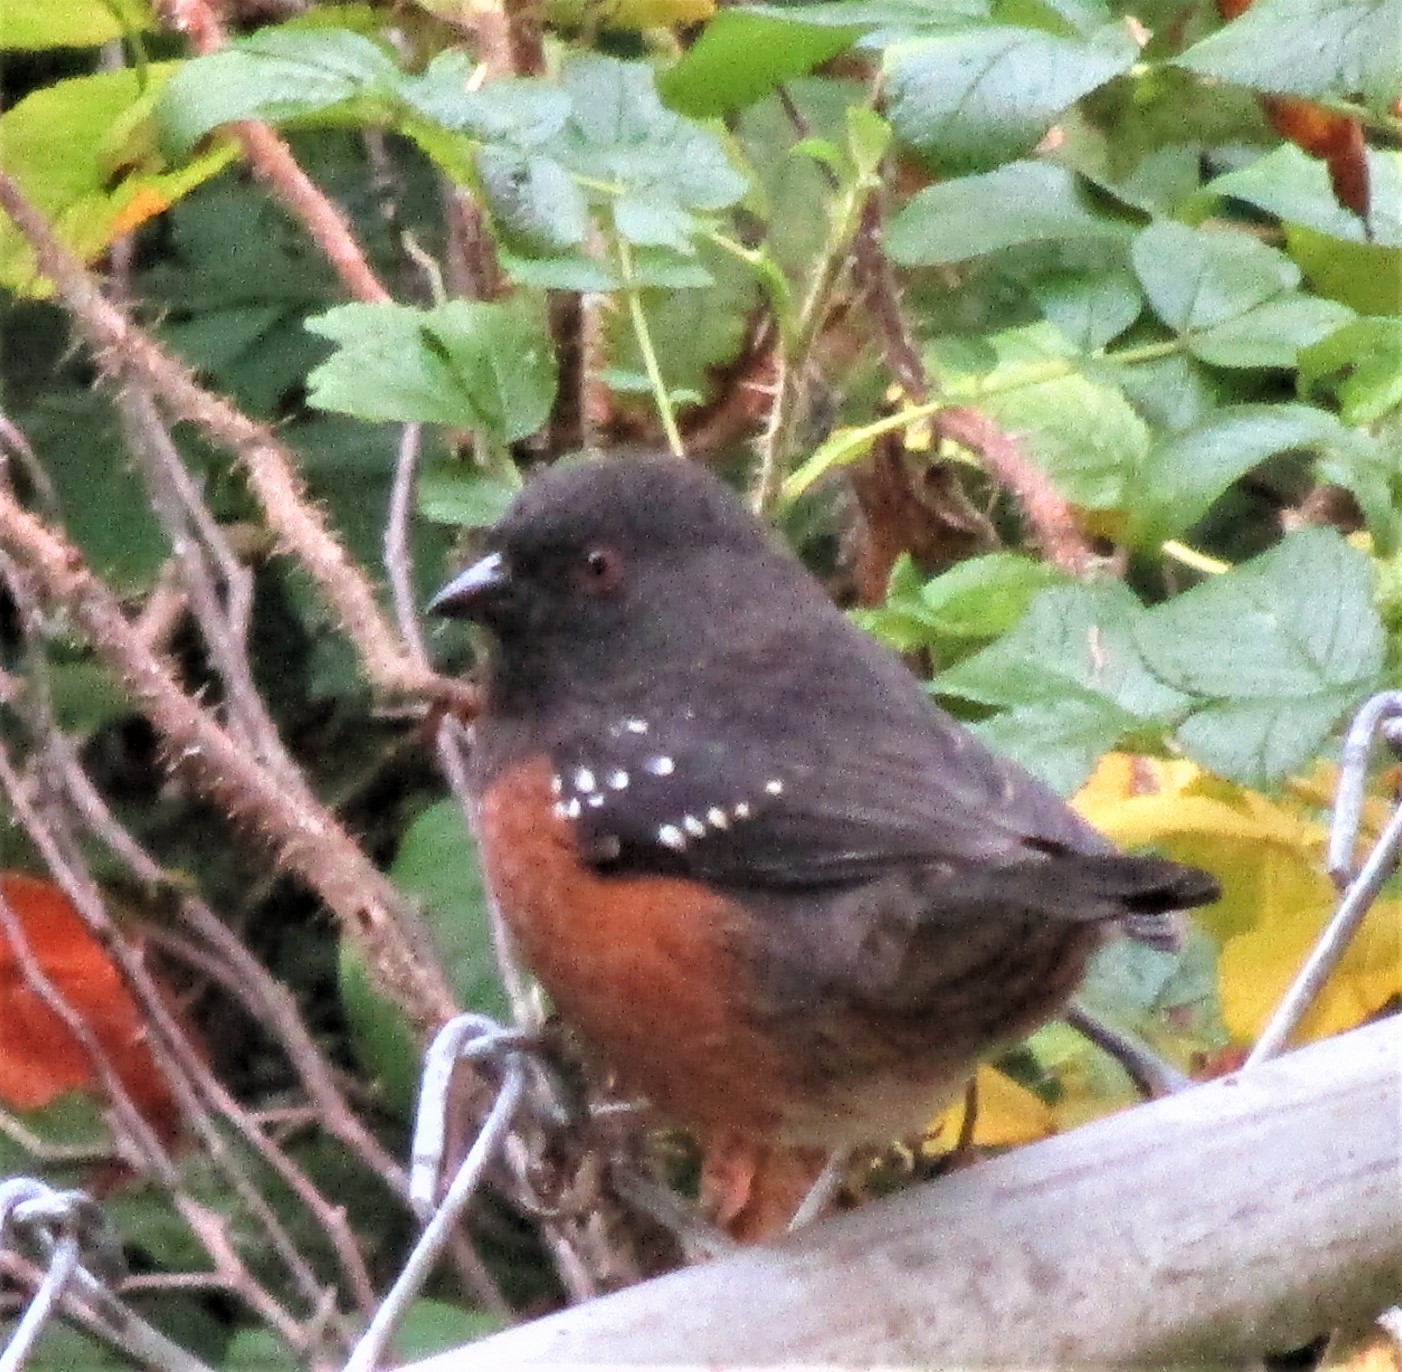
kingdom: Animalia
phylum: Chordata
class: Aves
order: Passeriformes
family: Passerellidae
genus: Pipilo
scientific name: Pipilo maculatus
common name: Spotted towhee
